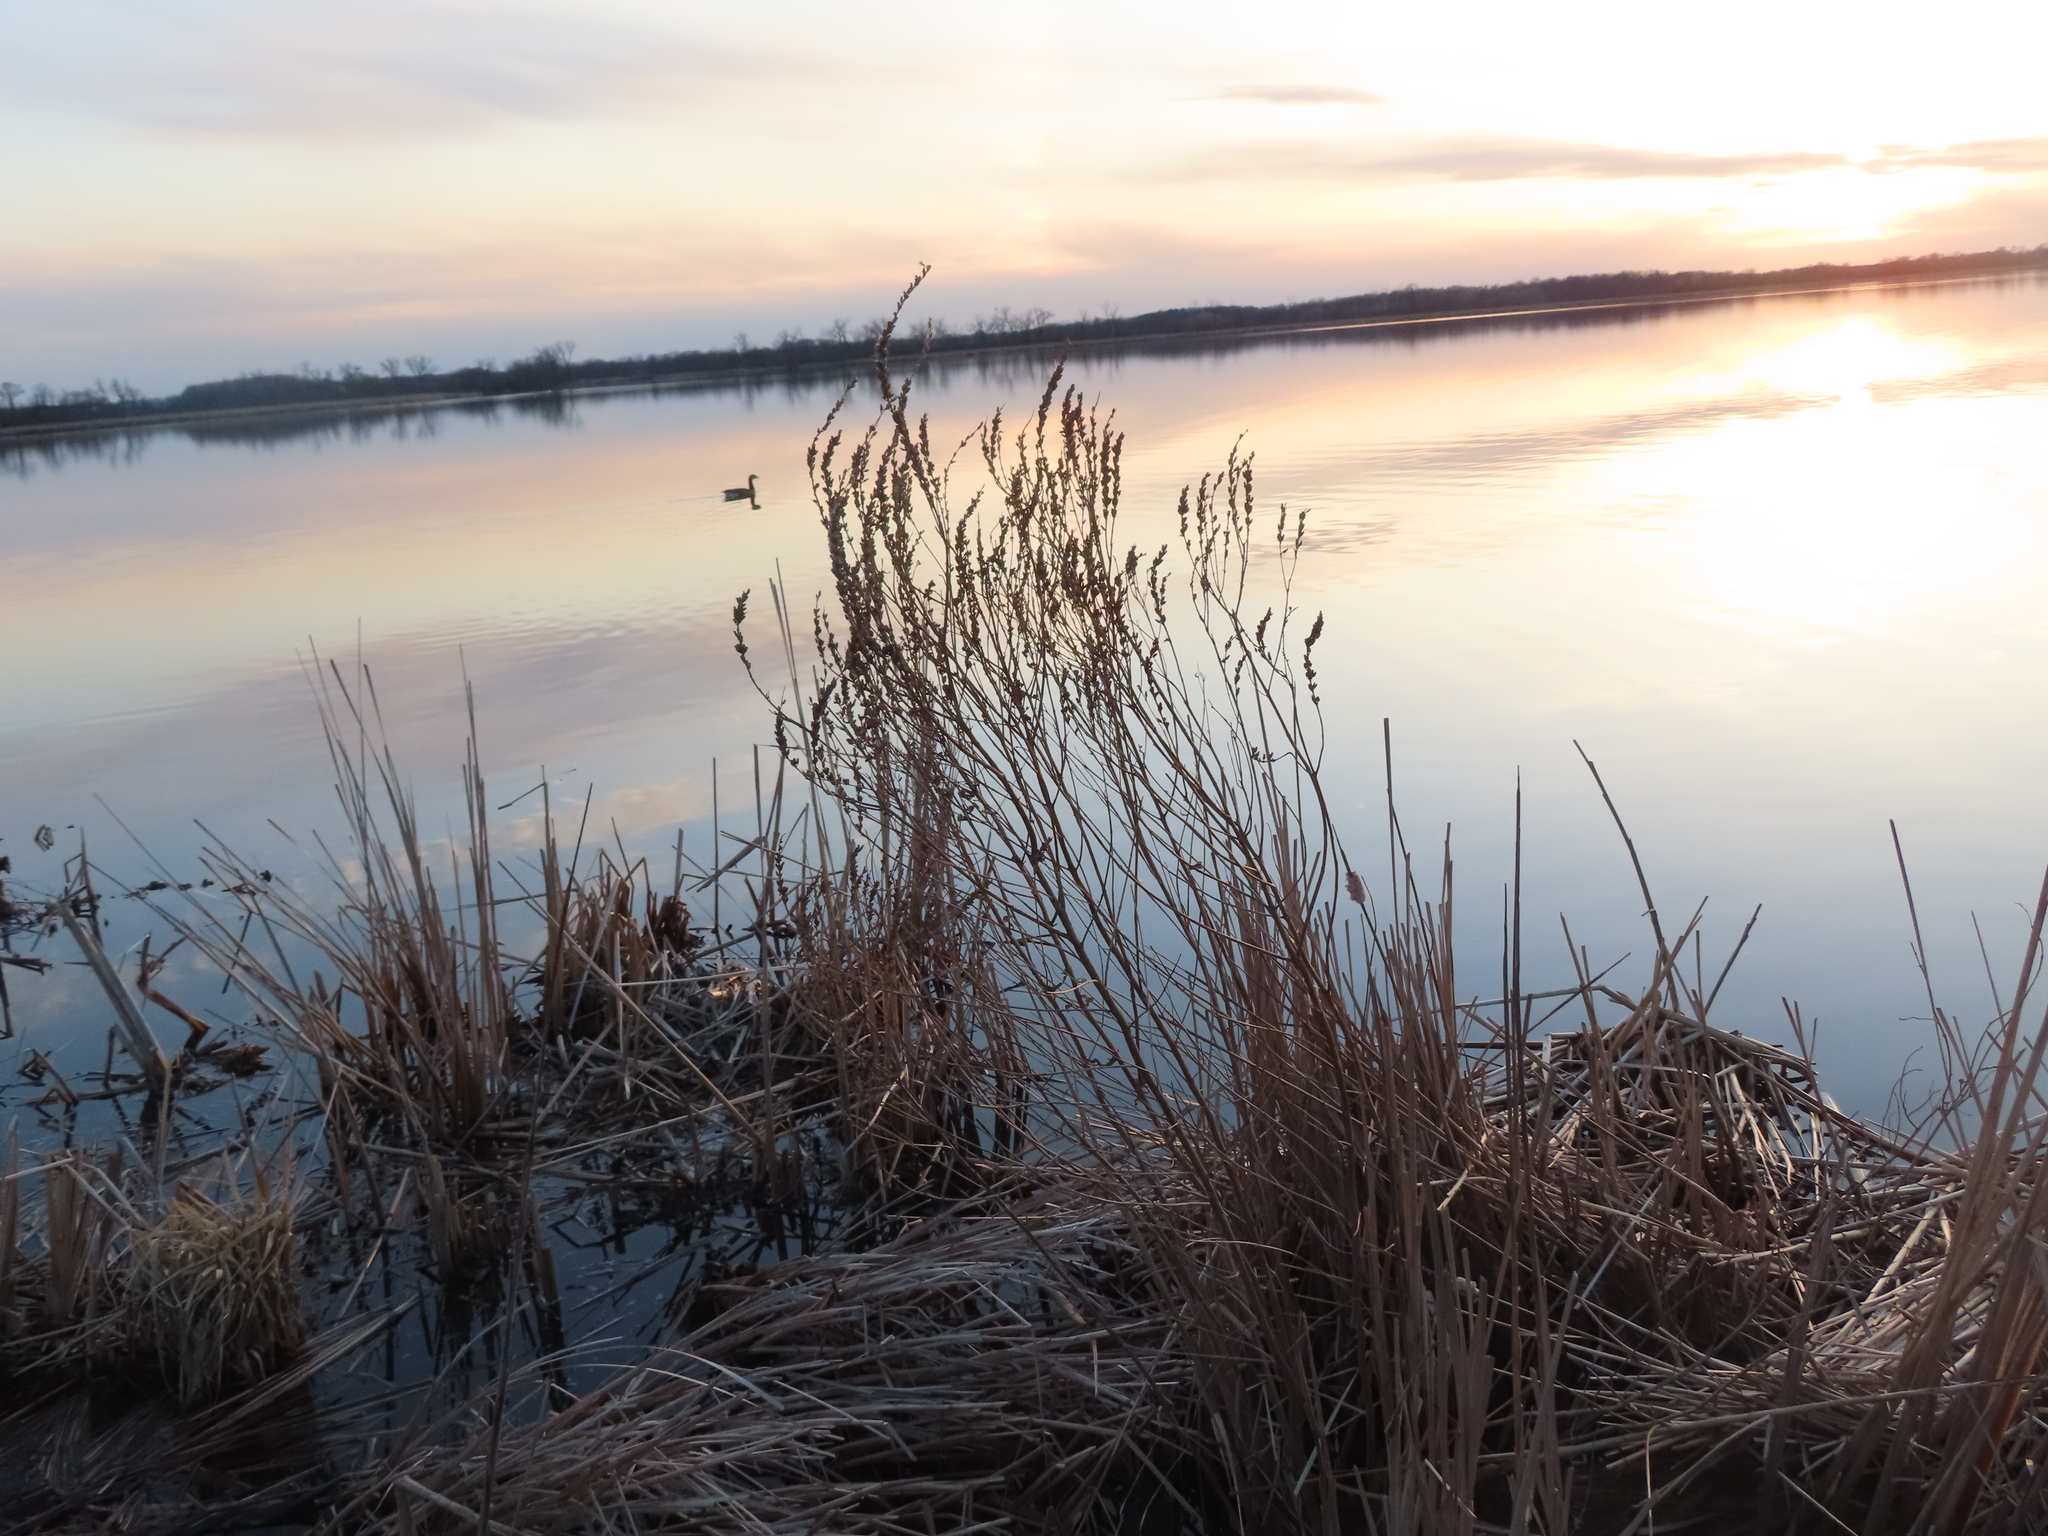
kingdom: Plantae
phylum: Tracheophyta
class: Magnoliopsida
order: Myrtales
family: Lythraceae
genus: Lythrum
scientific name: Lythrum salicaria
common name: Purple loosestrife
